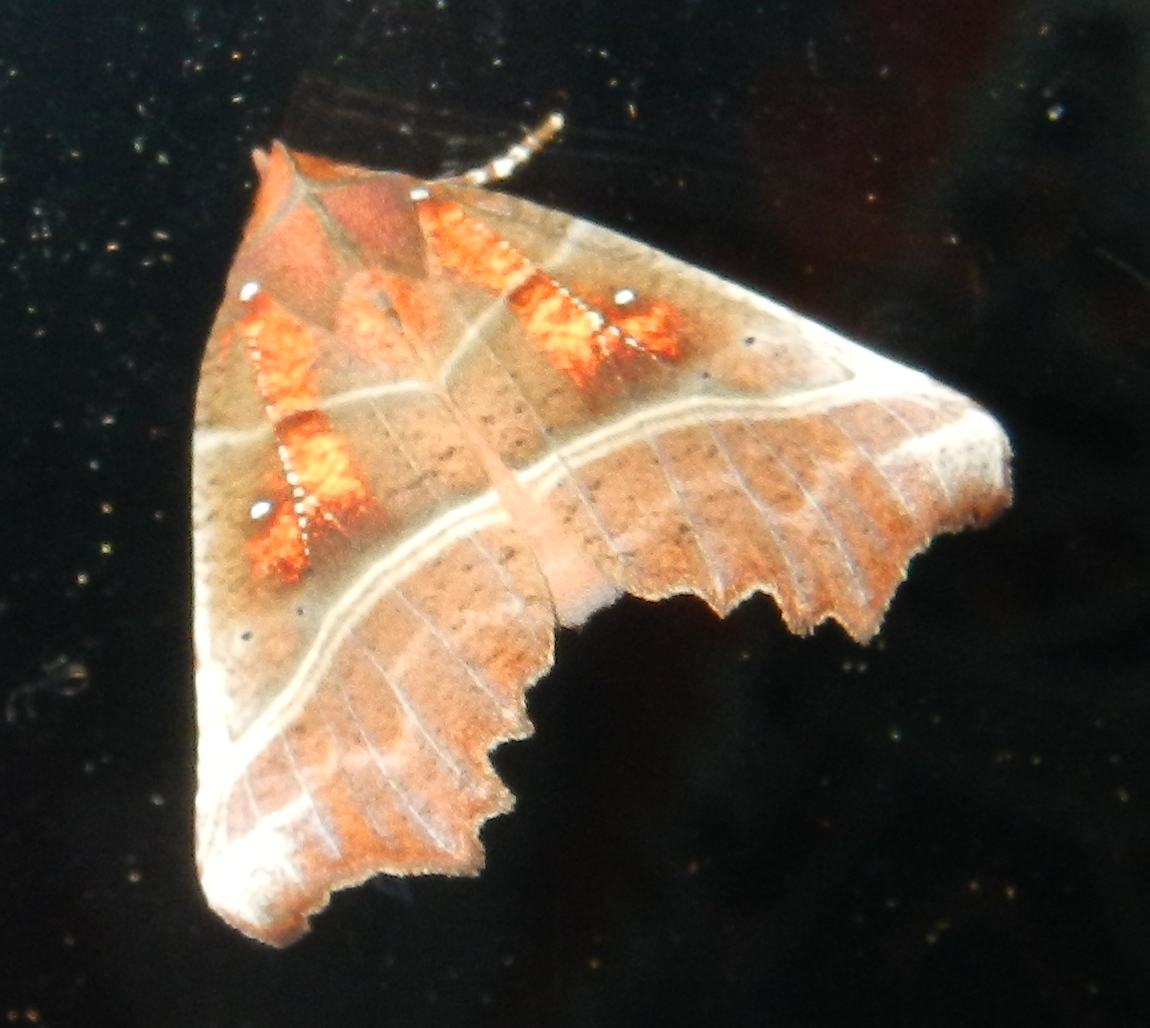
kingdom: Animalia
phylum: Arthropoda
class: Insecta
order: Lepidoptera
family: Erebidae
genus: Scoliopteryx
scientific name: Scoliopteryx libatrix
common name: Herald
